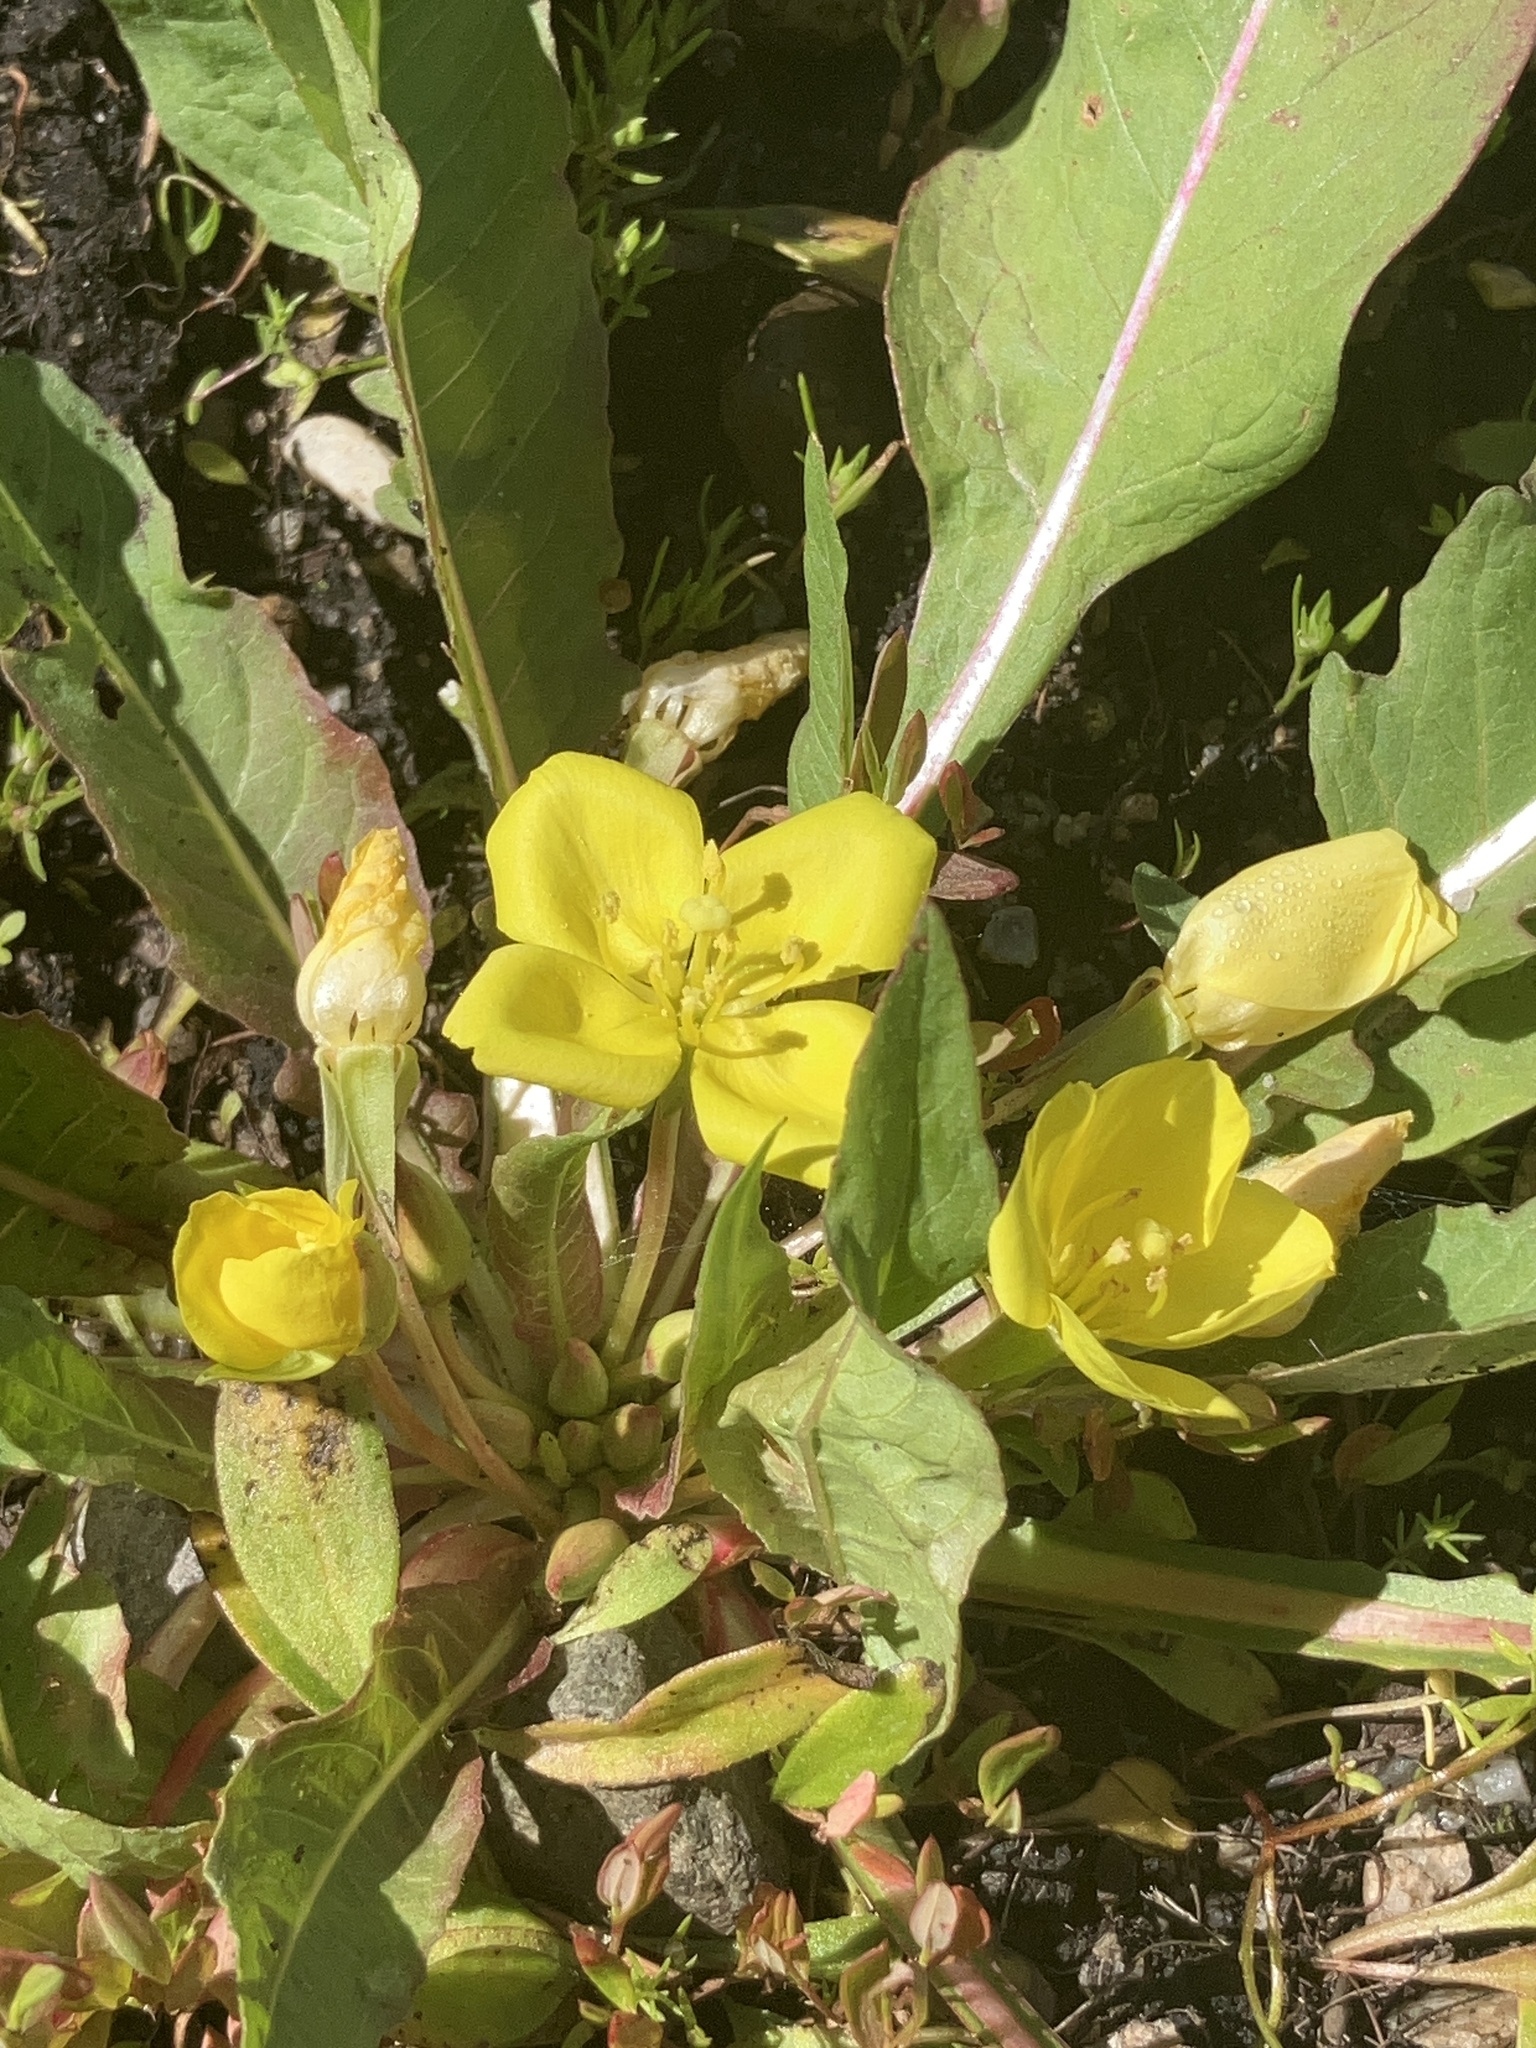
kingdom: Plantae
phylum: Tracheophyta
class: Magnoliopsida
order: Myrtales
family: Onagraceae
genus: Taraxia
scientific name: Taraxia subacaulis
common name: Diffuseflower evening primrose
